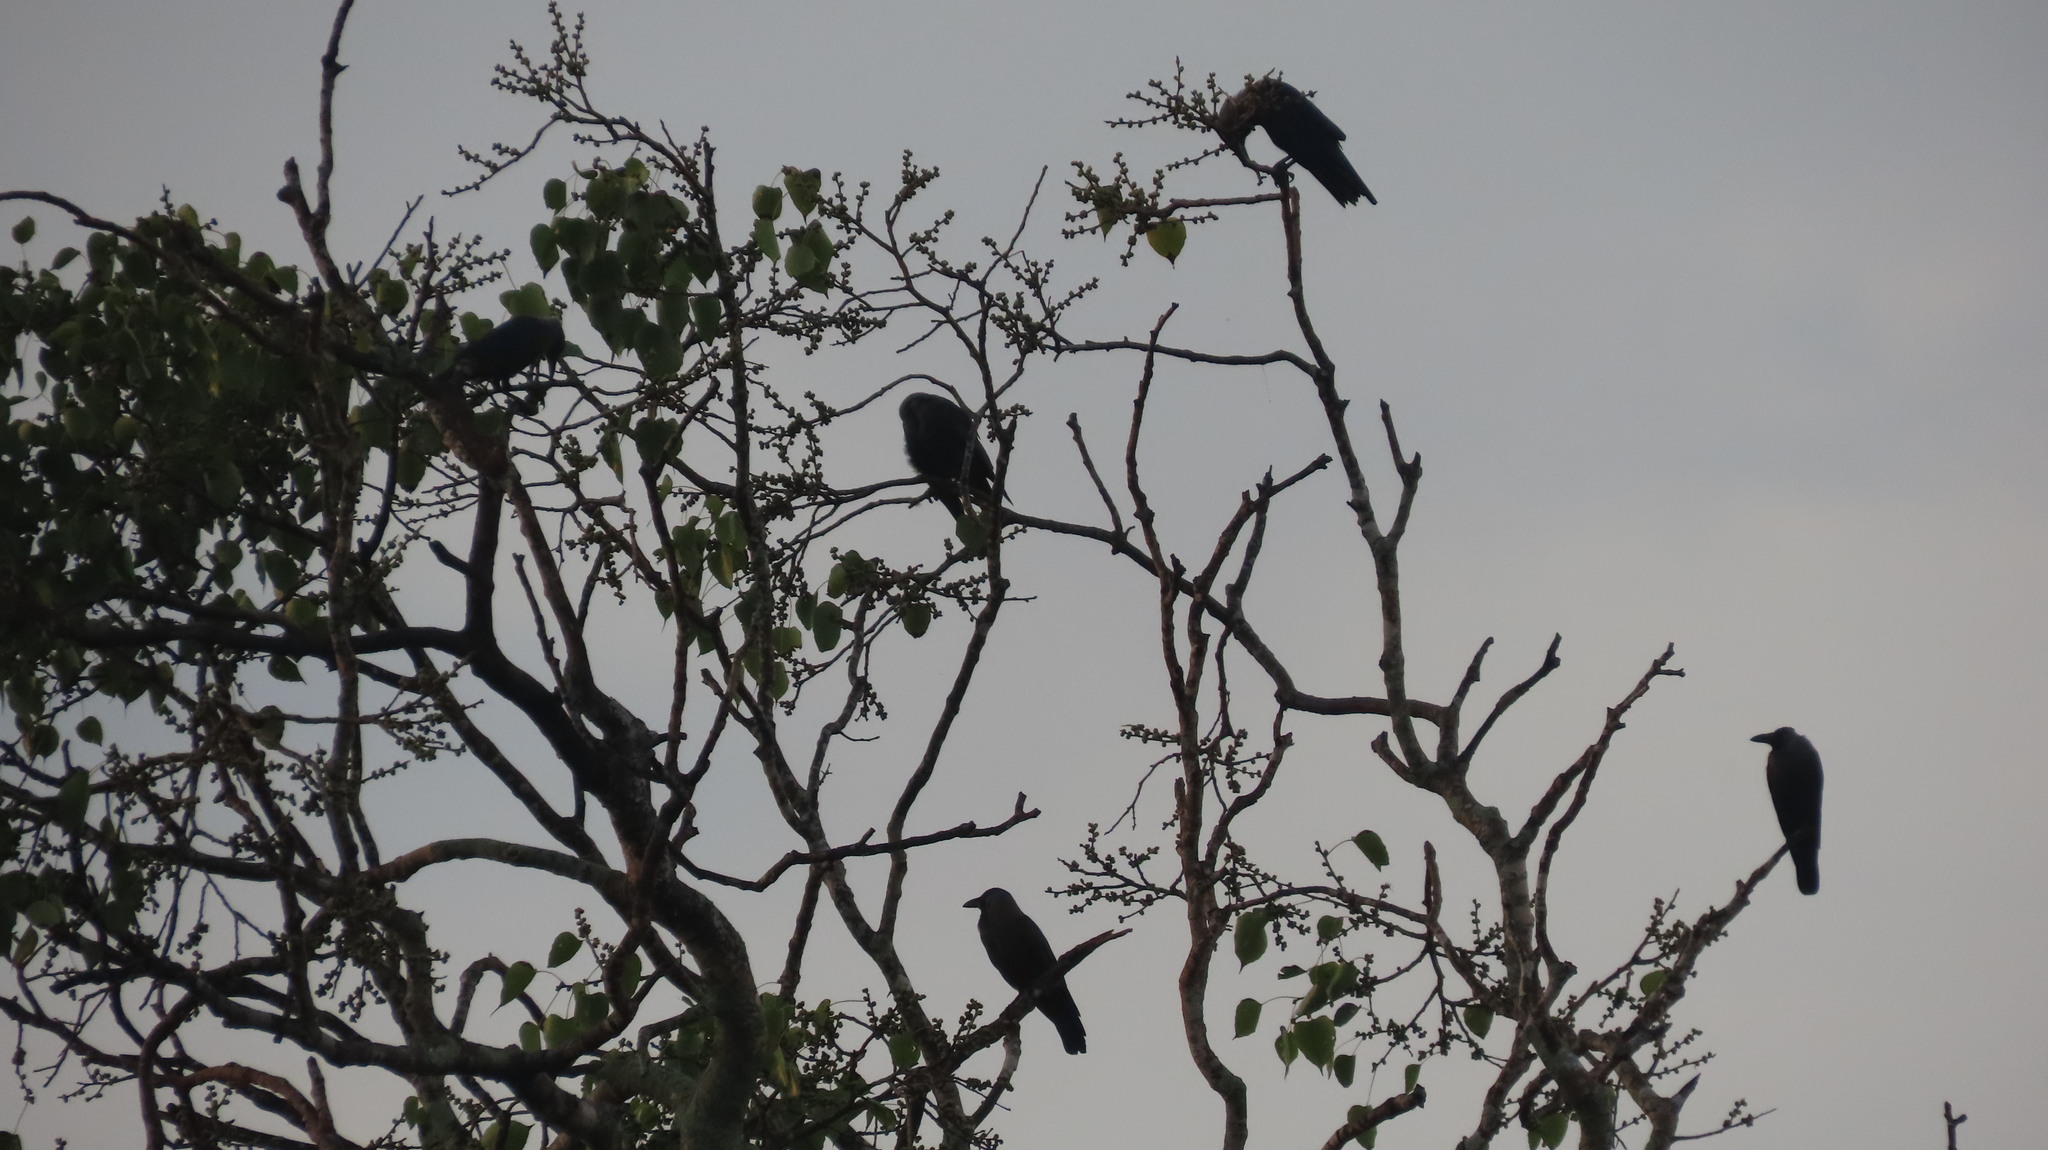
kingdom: Animalia
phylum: Chordata
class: Aves
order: Passeriformes
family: Corvidae
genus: Corvus
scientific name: Corvus splendens
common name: House crow
